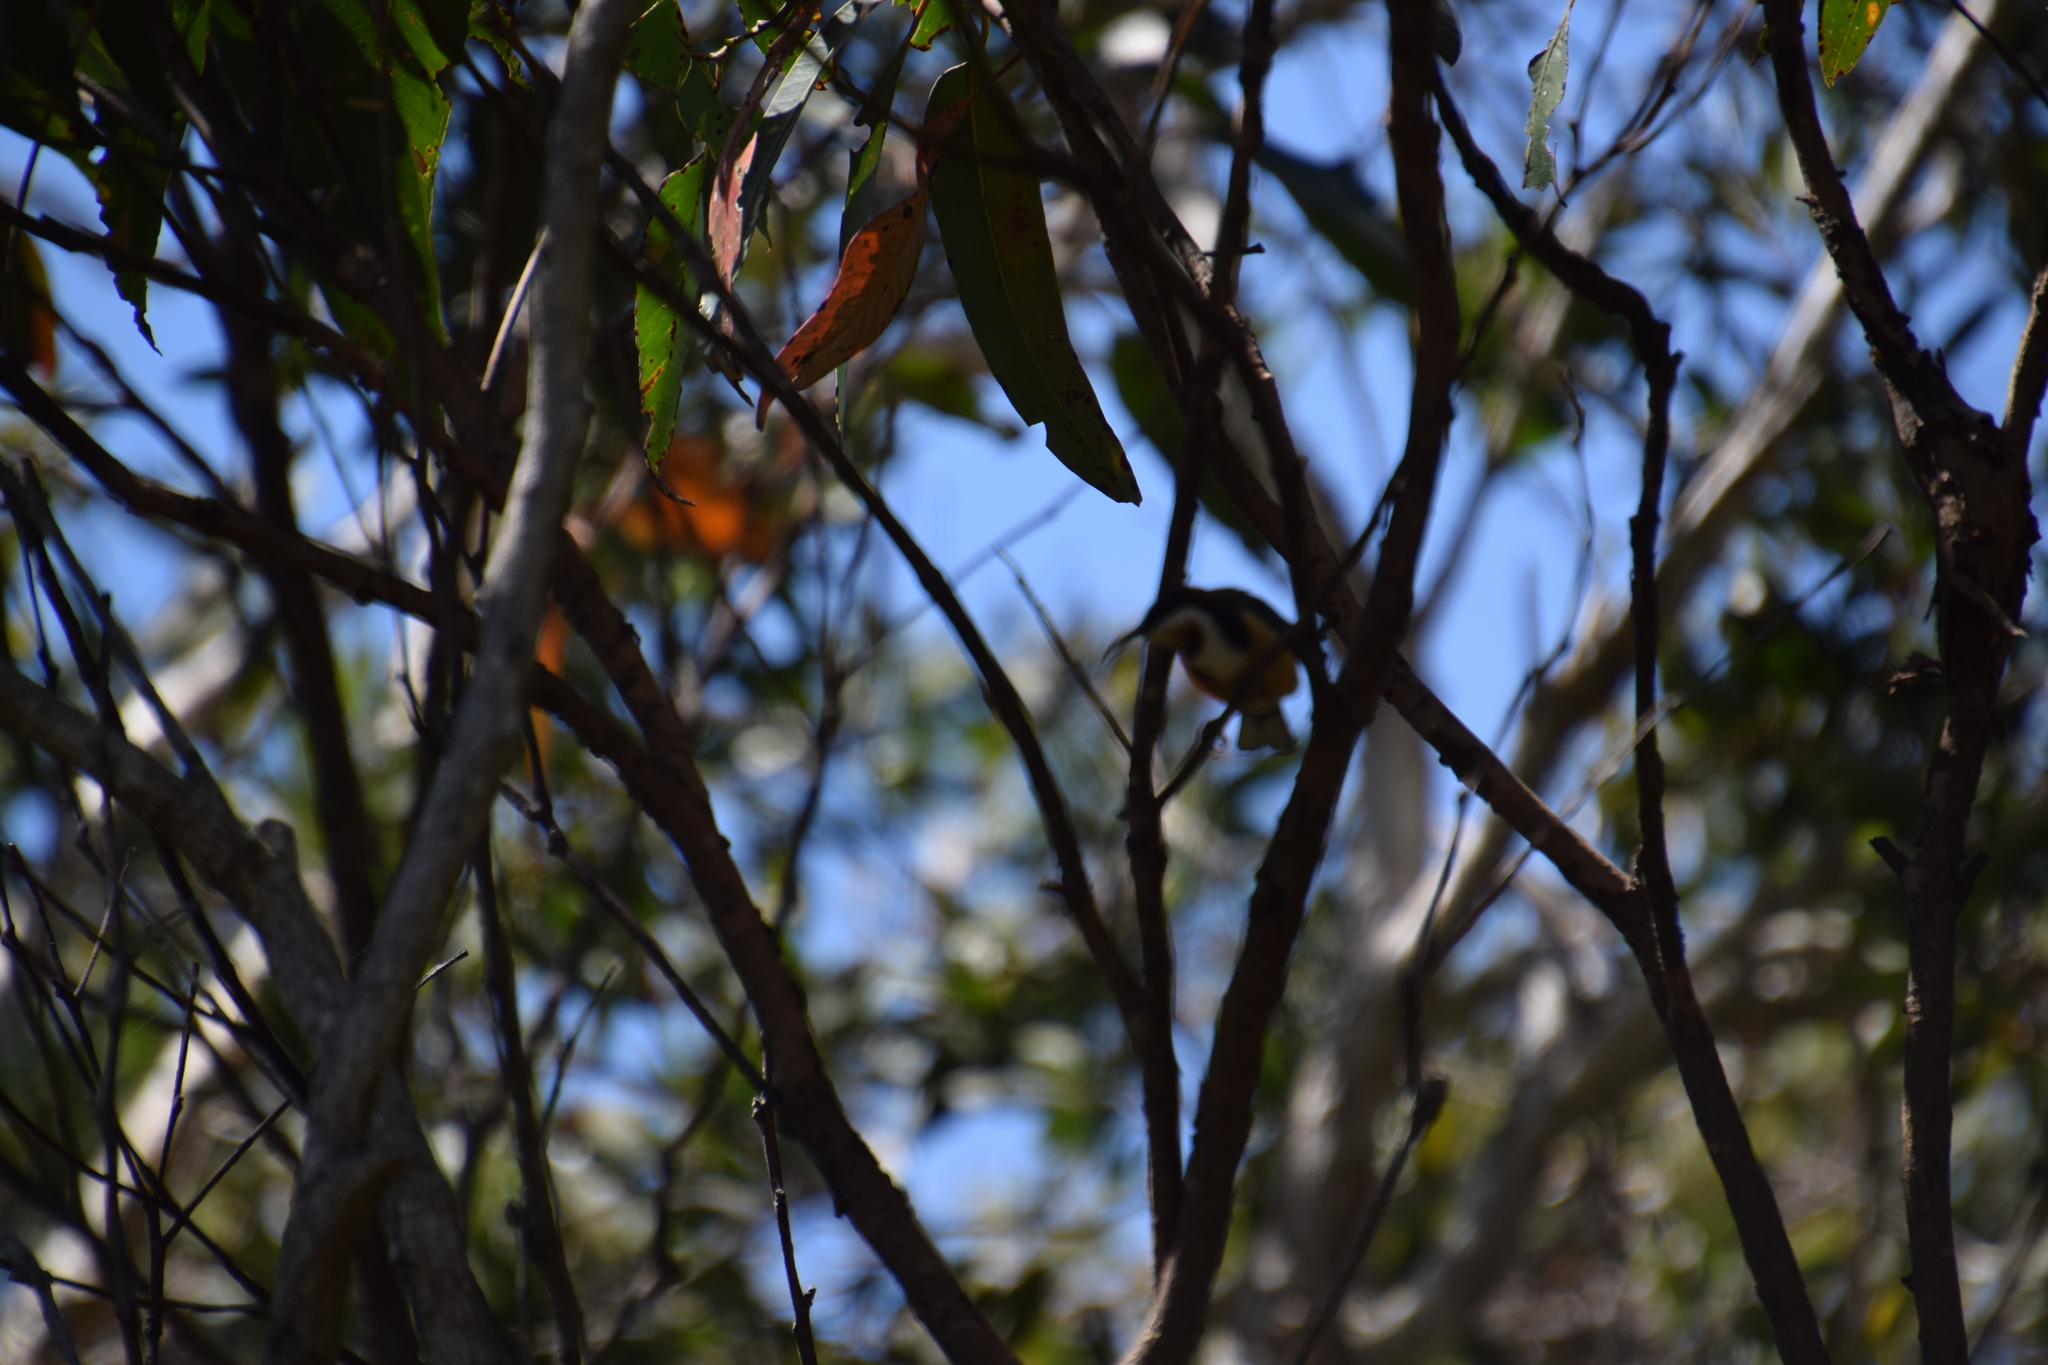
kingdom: Animalia
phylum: Chordata
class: Aves
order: Passeriformes
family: Meliphagidae
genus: Acanthorhynchus
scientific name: Acanthorhynchus tenuirostris
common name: Eastern spinebill
